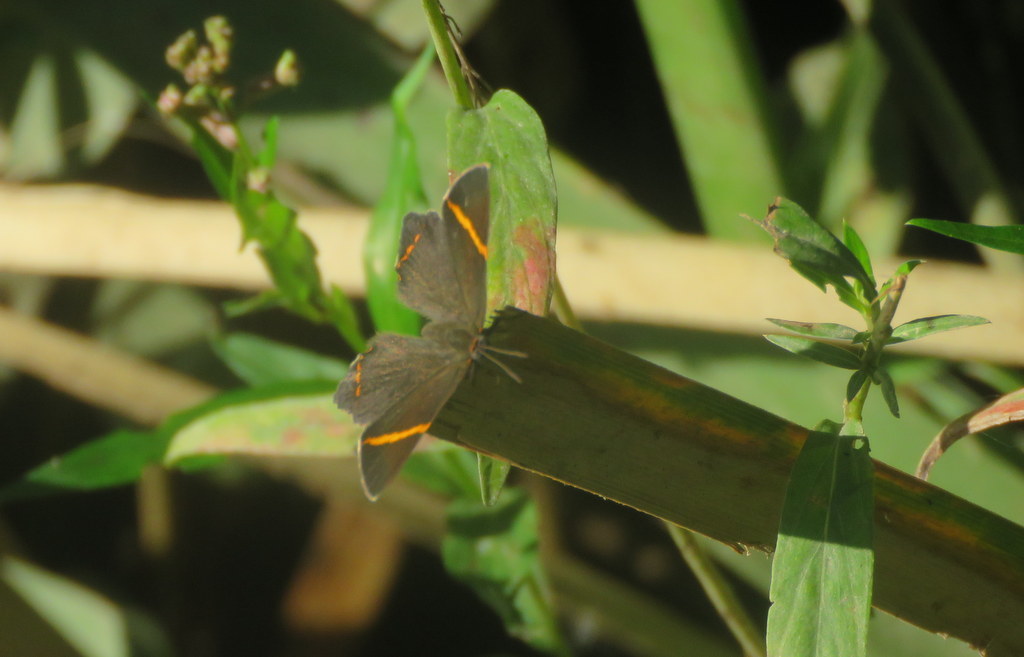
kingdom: Animalia
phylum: Arthropoda
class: Insecta
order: Lepidoptera
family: Riodinidae
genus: Riodina
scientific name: Riodina lysippoides
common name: Little dancer metalmark
